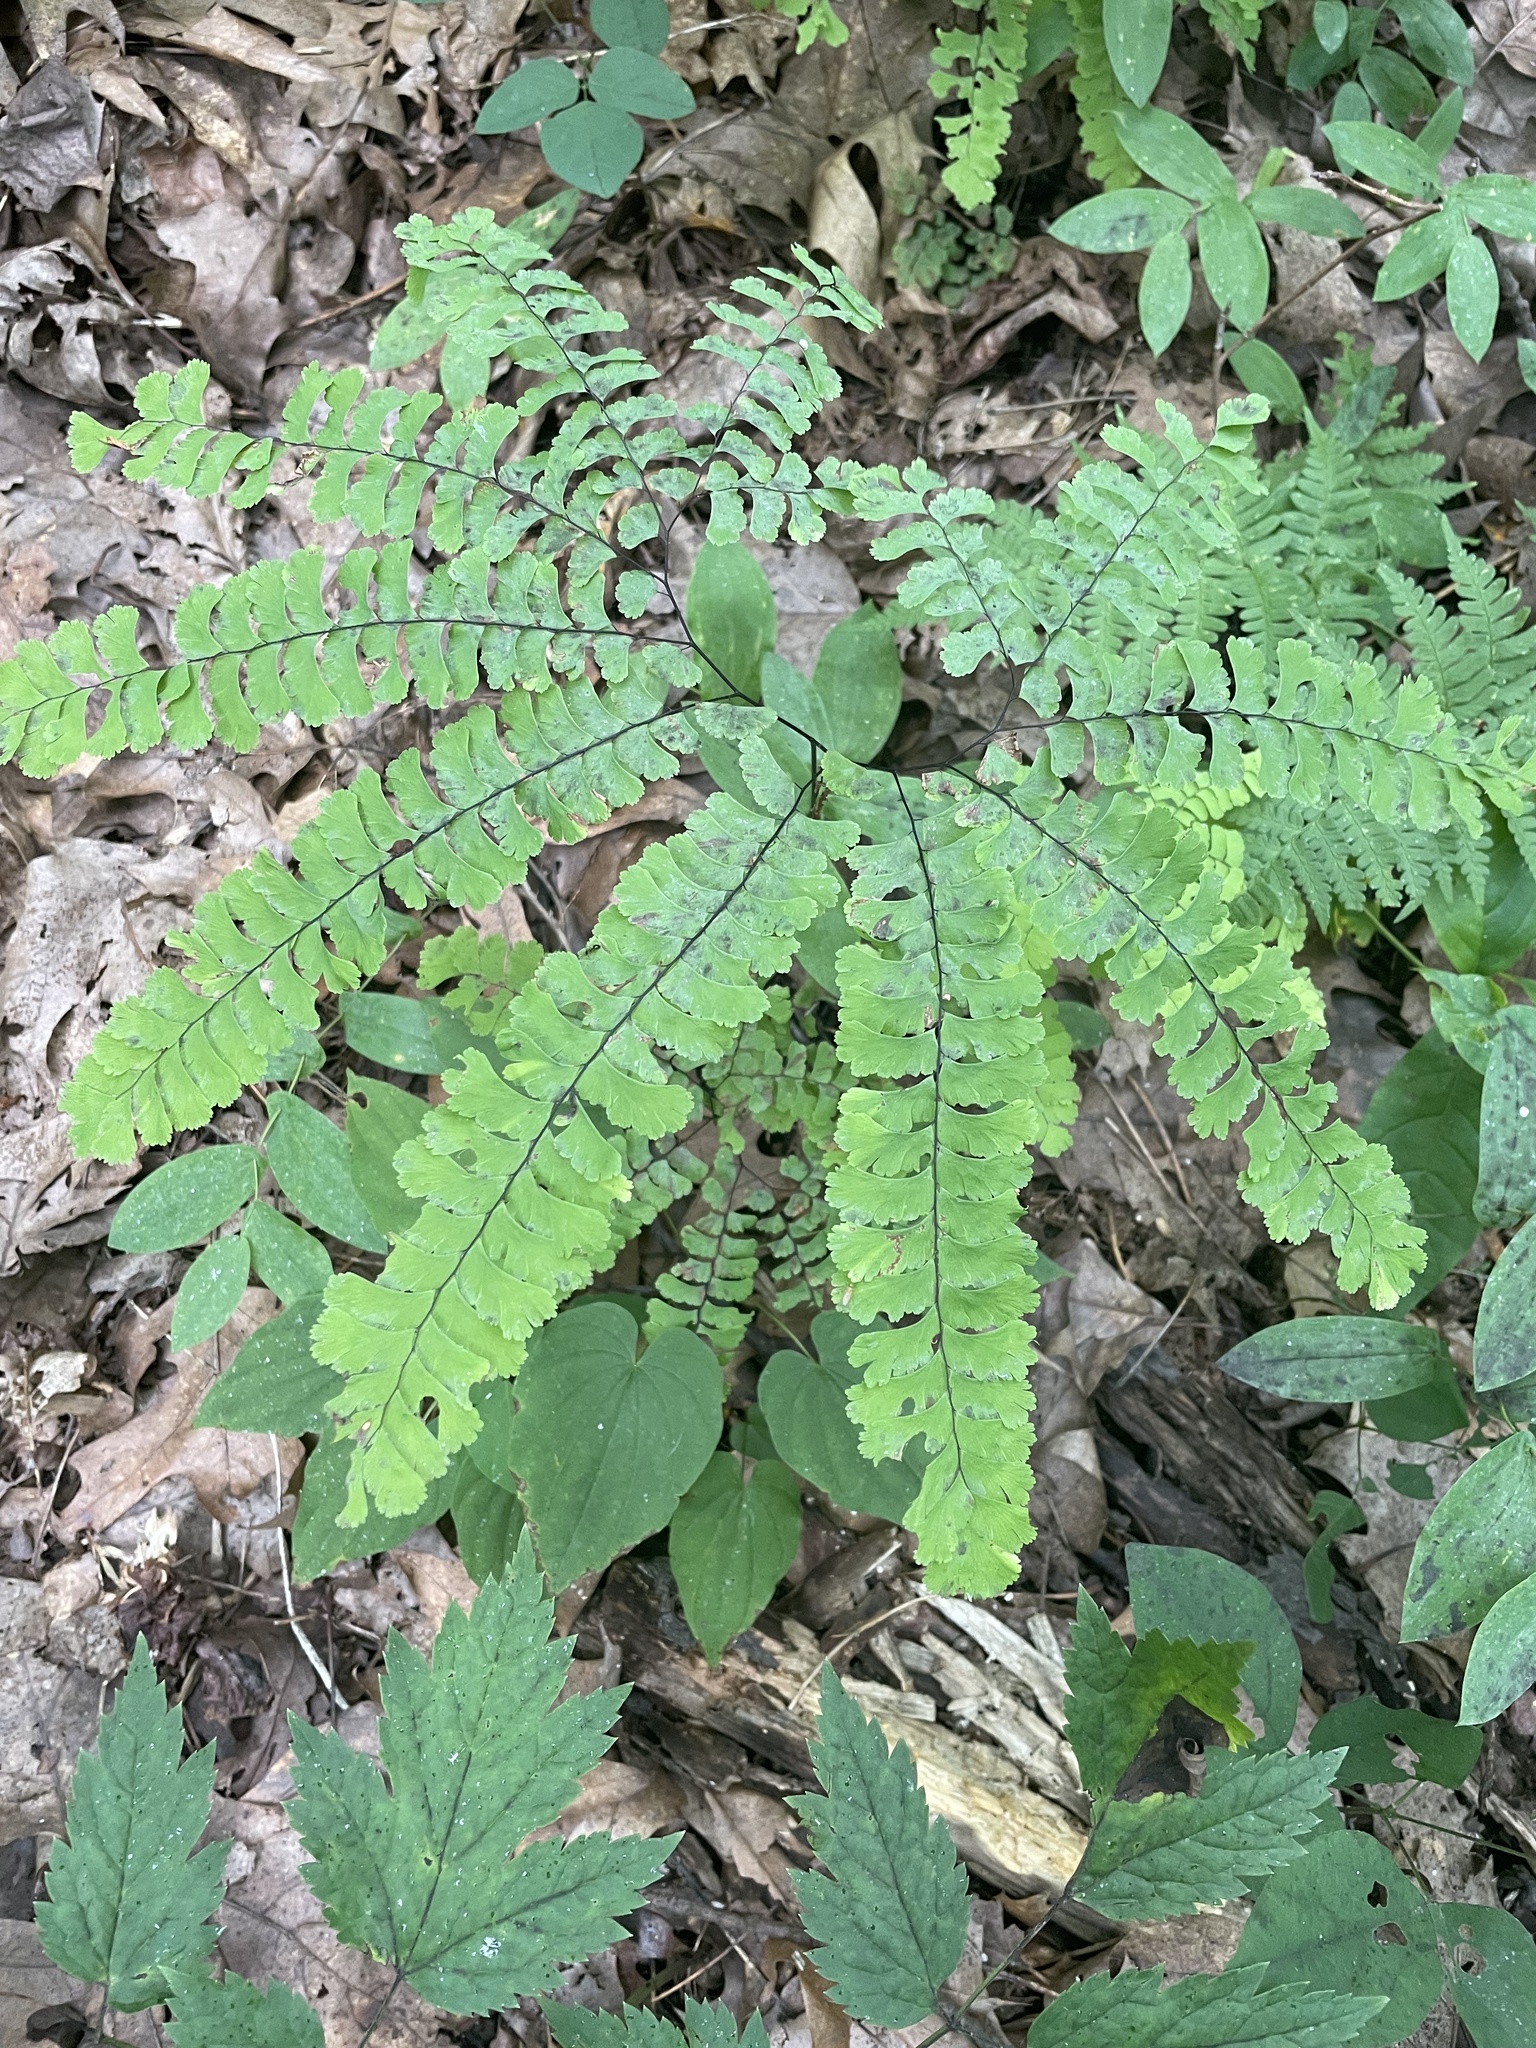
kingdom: Plantae
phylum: Tracheophyta
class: Polypodiopsida
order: Polypodiales
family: Pteridaceae
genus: Adiantum
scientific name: Adiantum pedatum
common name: Five-finger fern
